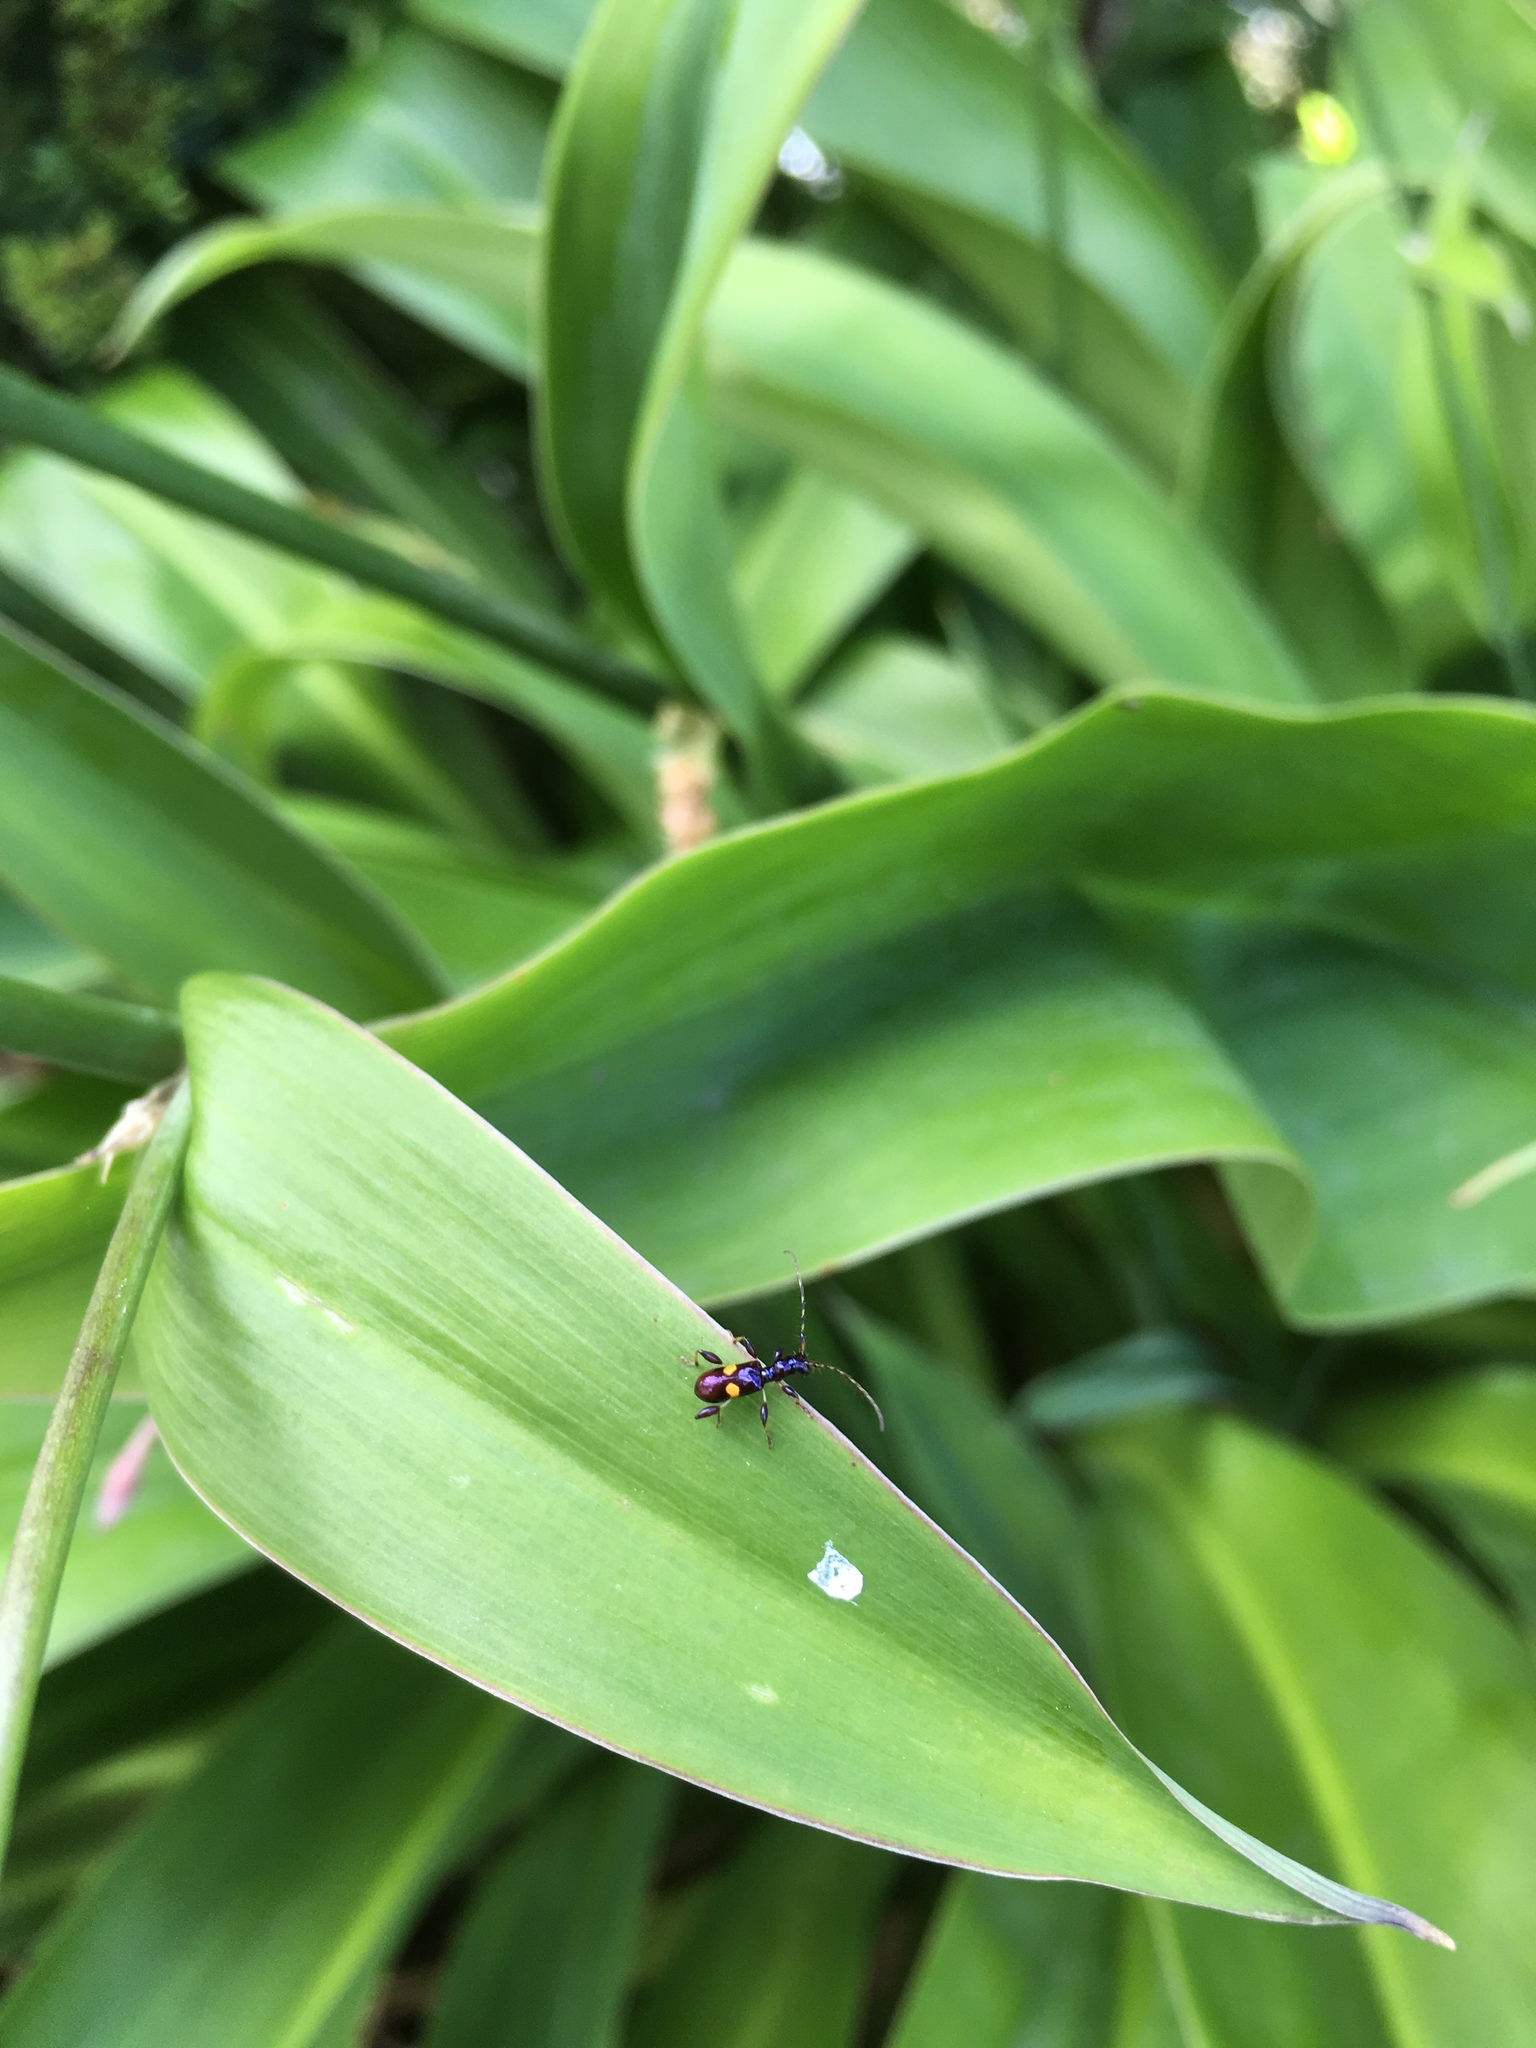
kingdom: Animalia
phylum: Arthropoda
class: Insecta
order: Coleoptera
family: Cerambycidae
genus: Zorion
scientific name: Zorion guttigerum
